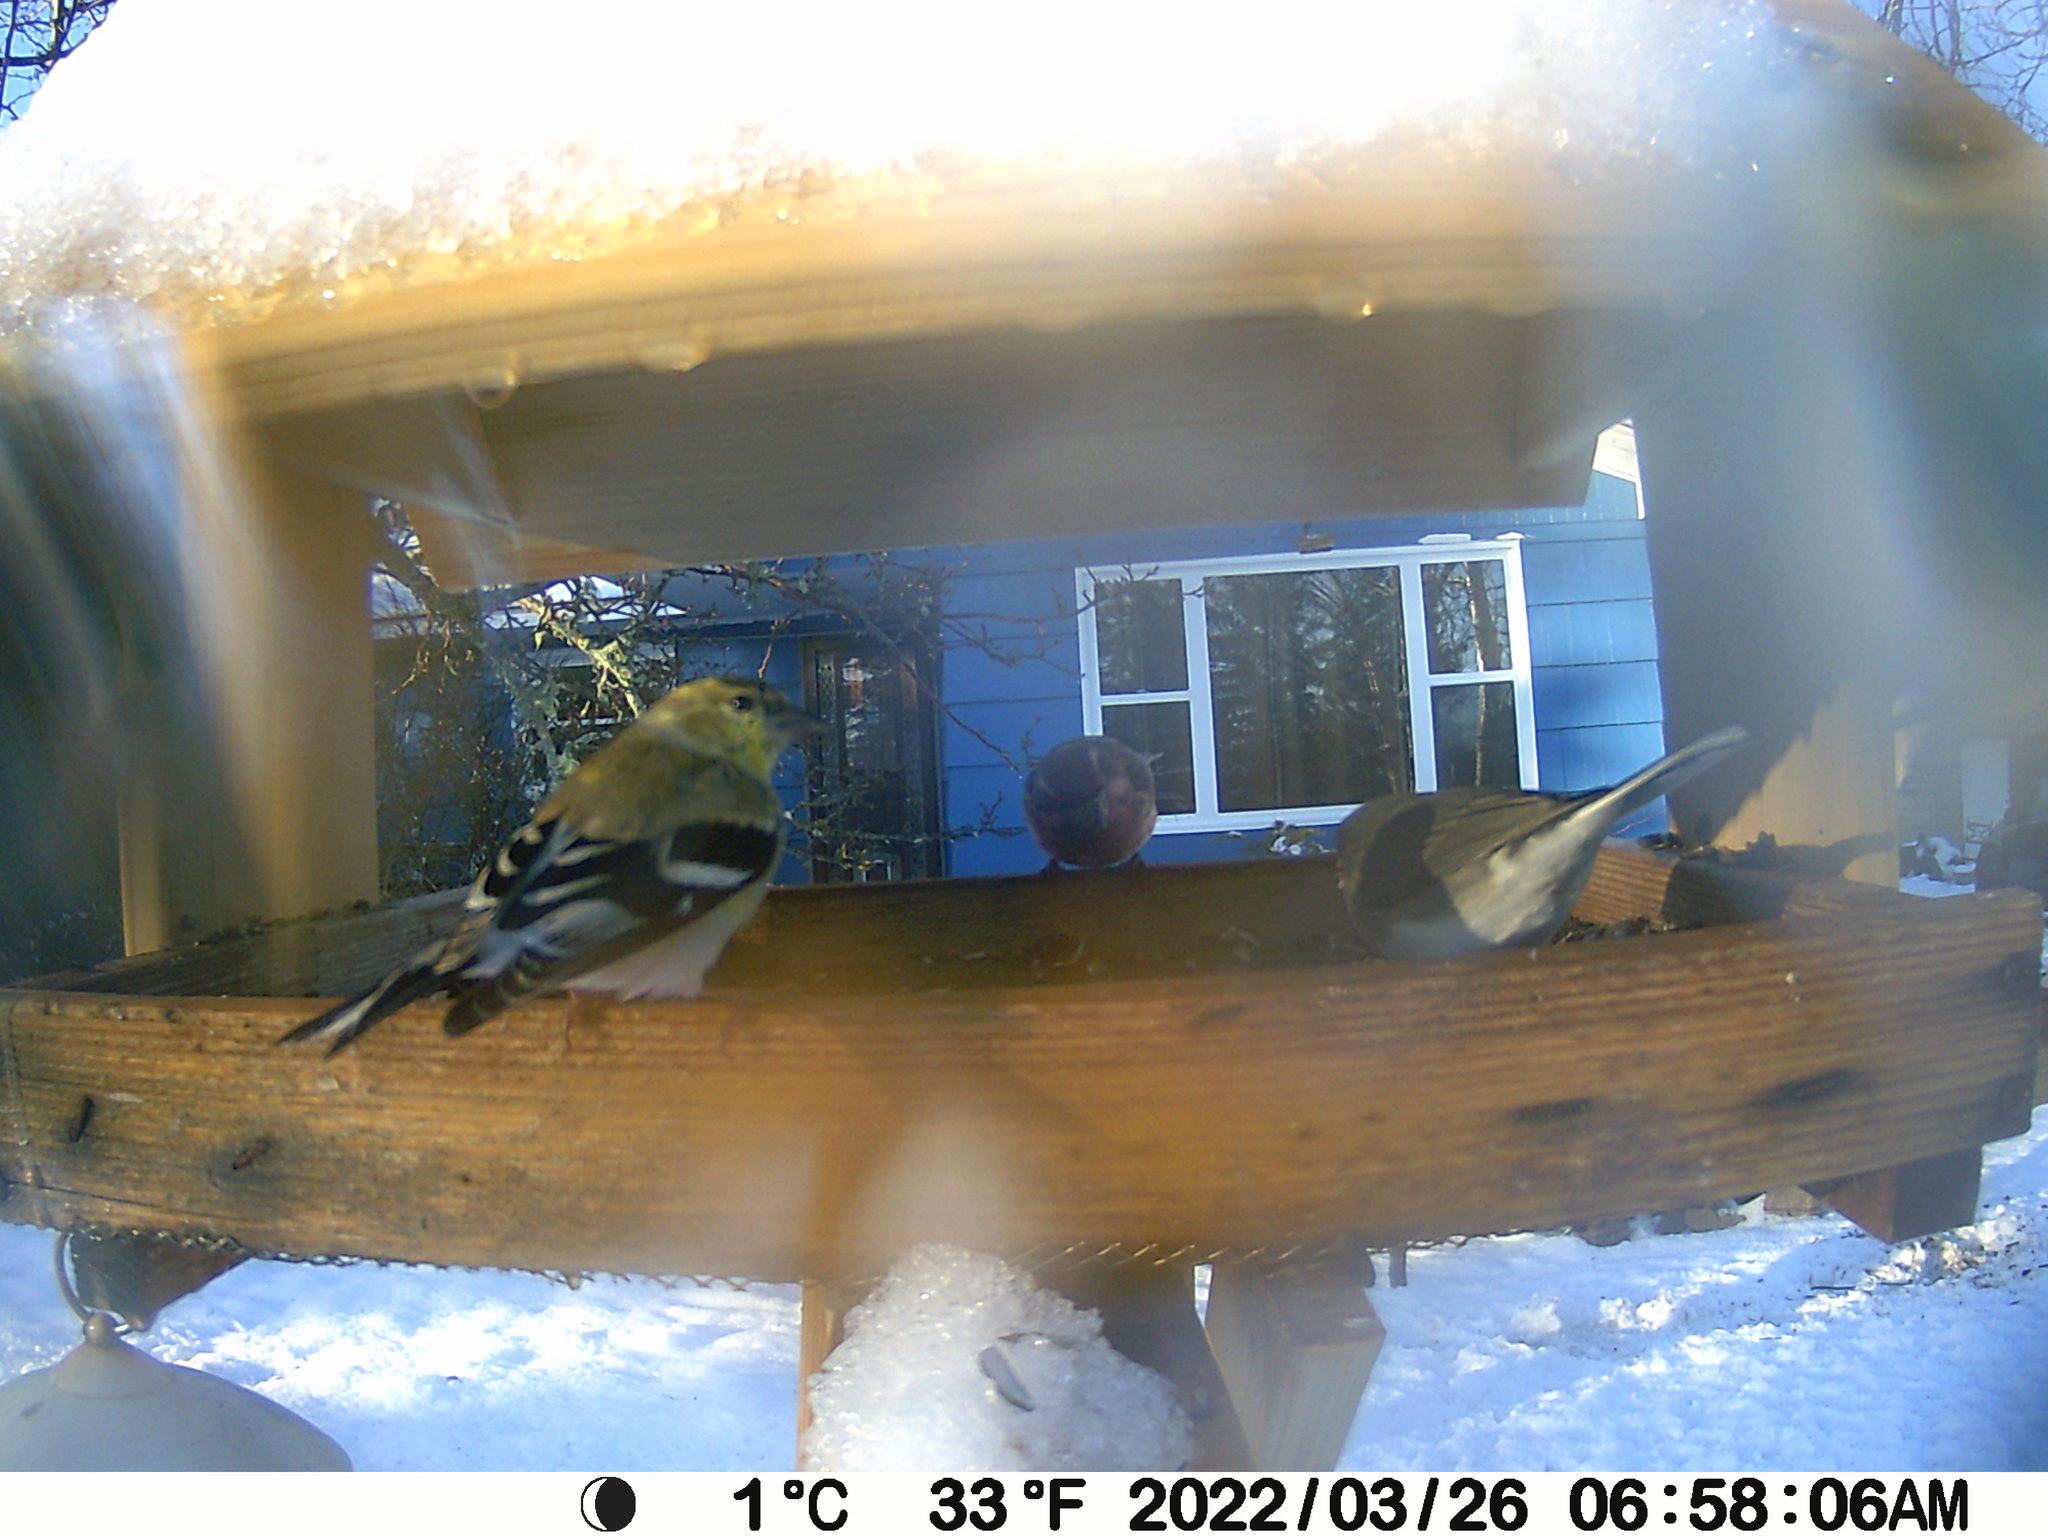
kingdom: Animalia
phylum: Chordata
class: Aves
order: Passeriformes
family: Fringillidae
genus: Spinus
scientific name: Spinus tristis
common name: American goldfinch
